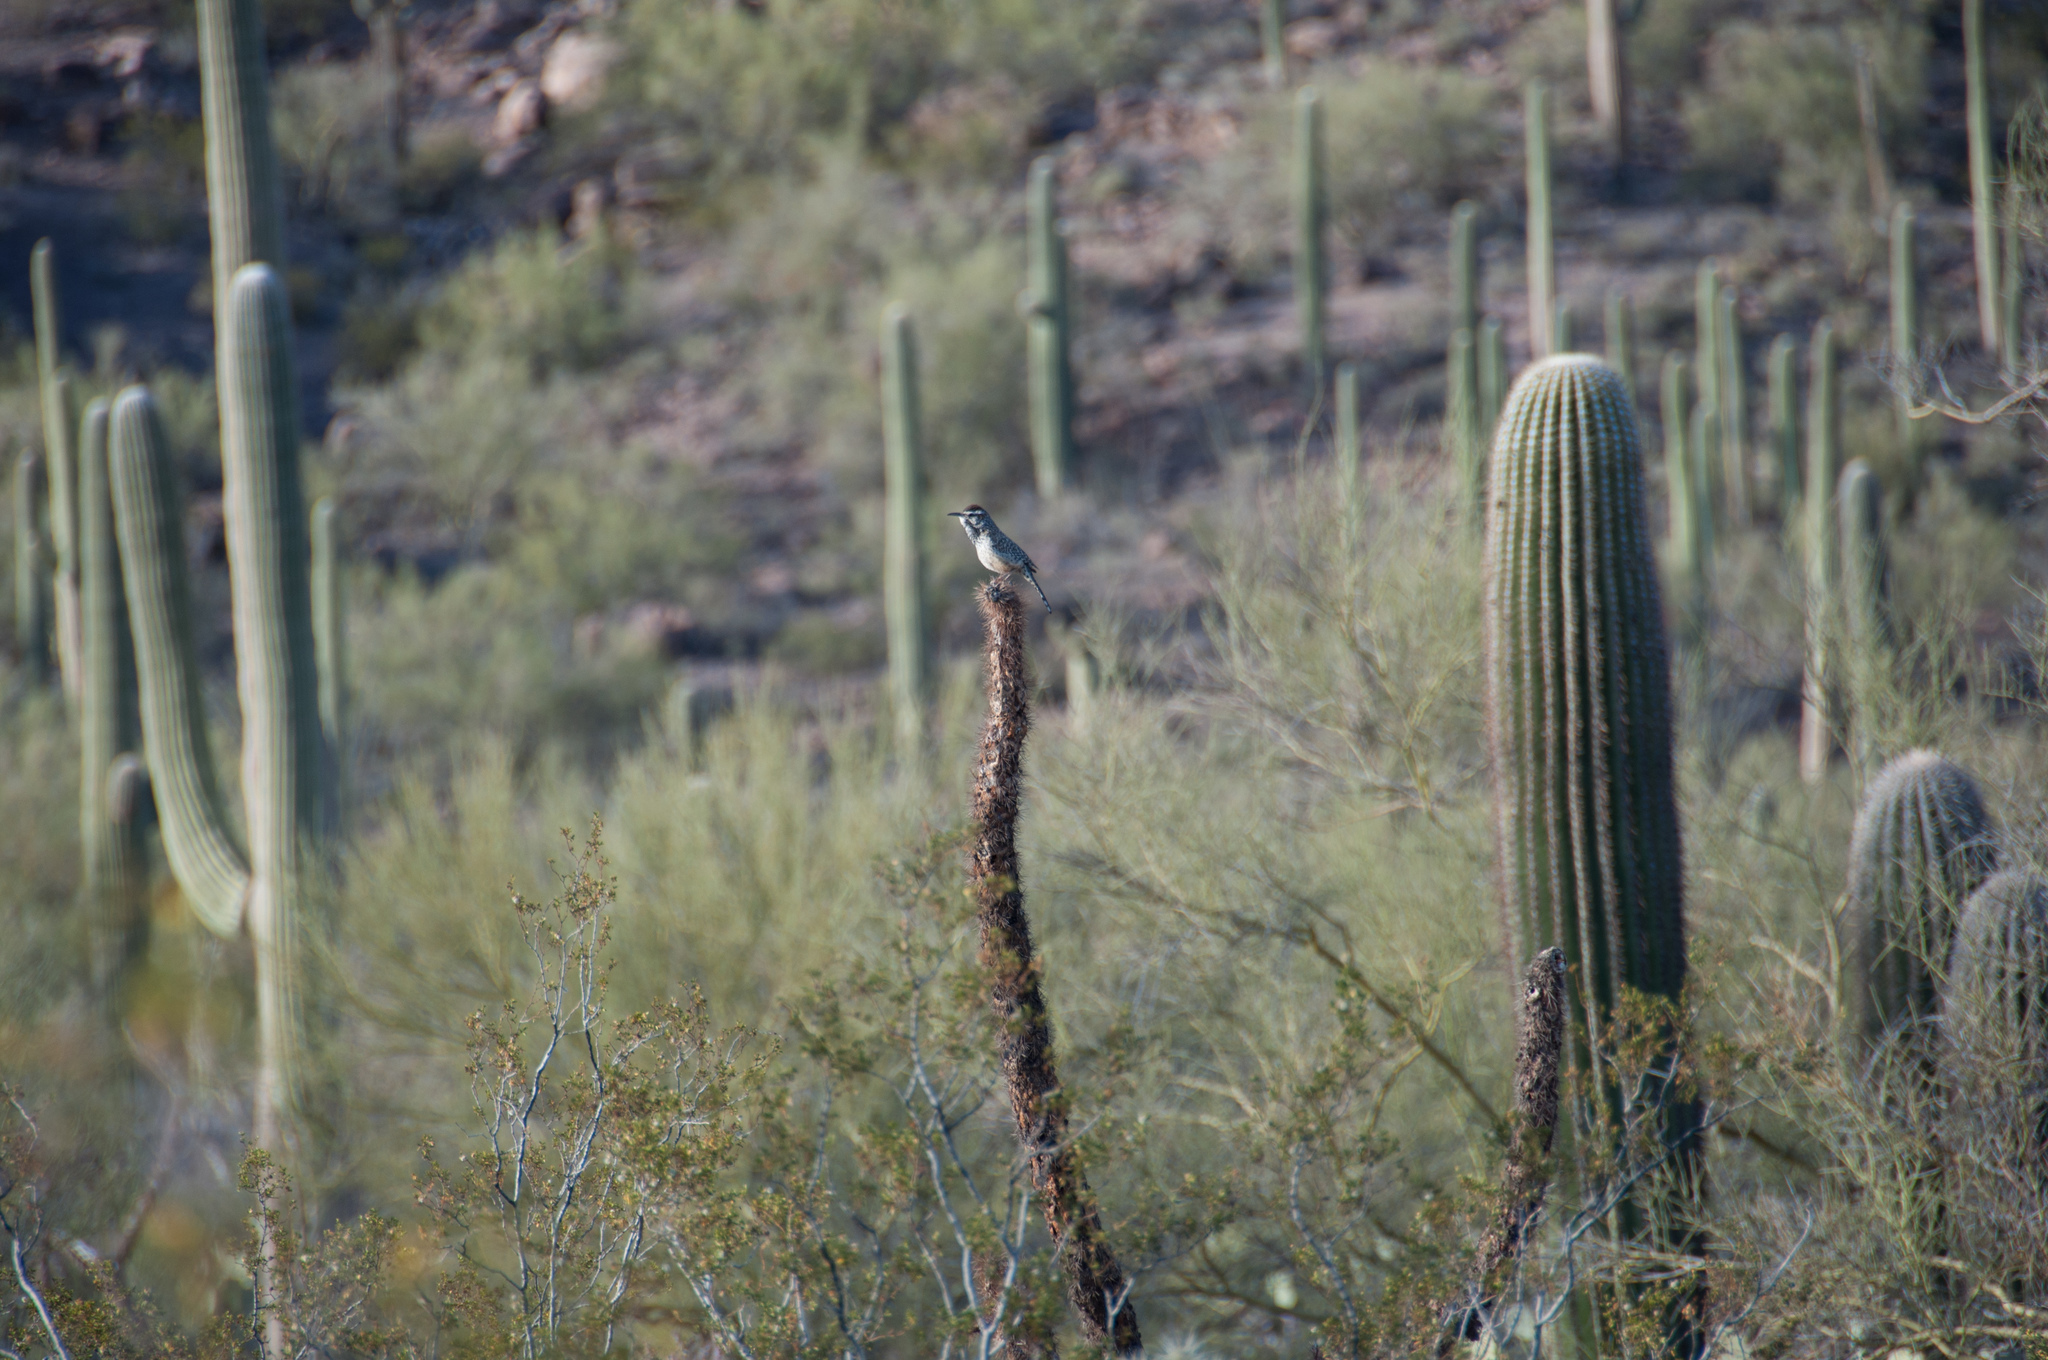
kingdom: Animalia
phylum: Chordata
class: Aves
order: Passeriformes
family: Troglodytidae
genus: Campylorhynchus
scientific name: Campylorhynchus brunneicapillus
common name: Cactus wren
